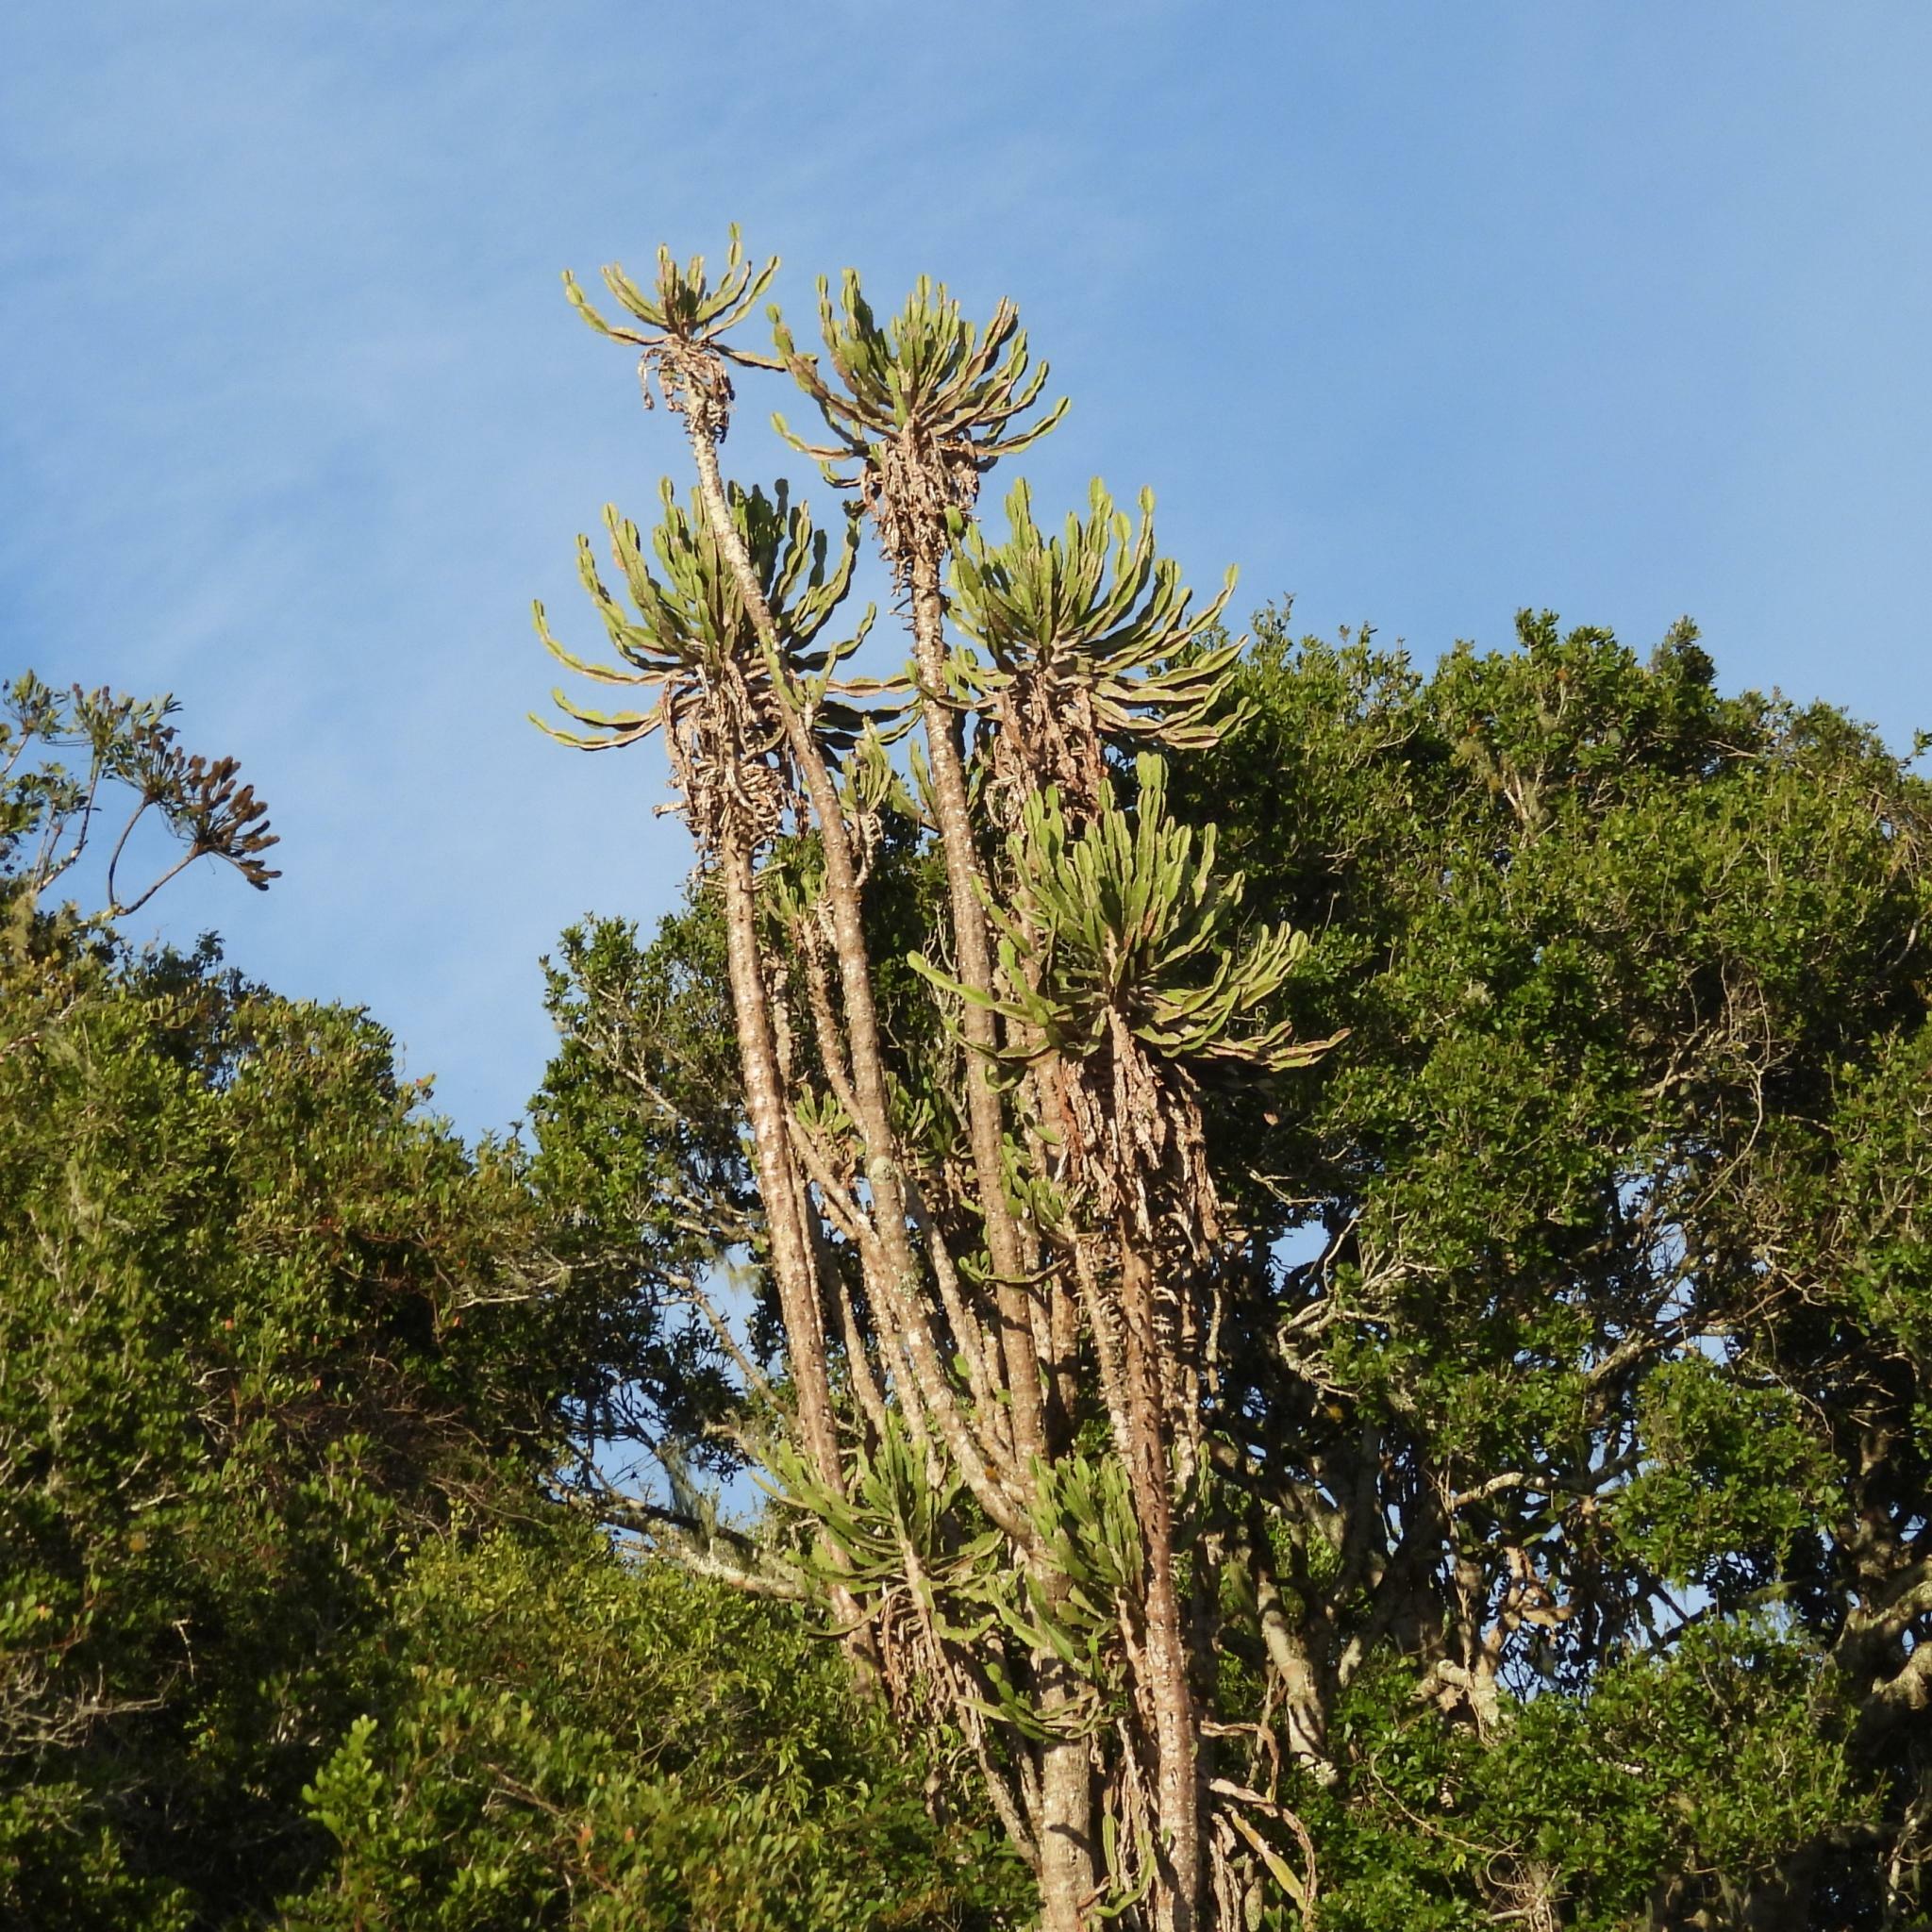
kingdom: Plantae
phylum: Tracheophyta
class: Magnoliopsida
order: Malpighiales
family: Euphorbiaceae
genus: Euphorbia
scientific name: Euphorbia triangularis
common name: Chandelier tree
